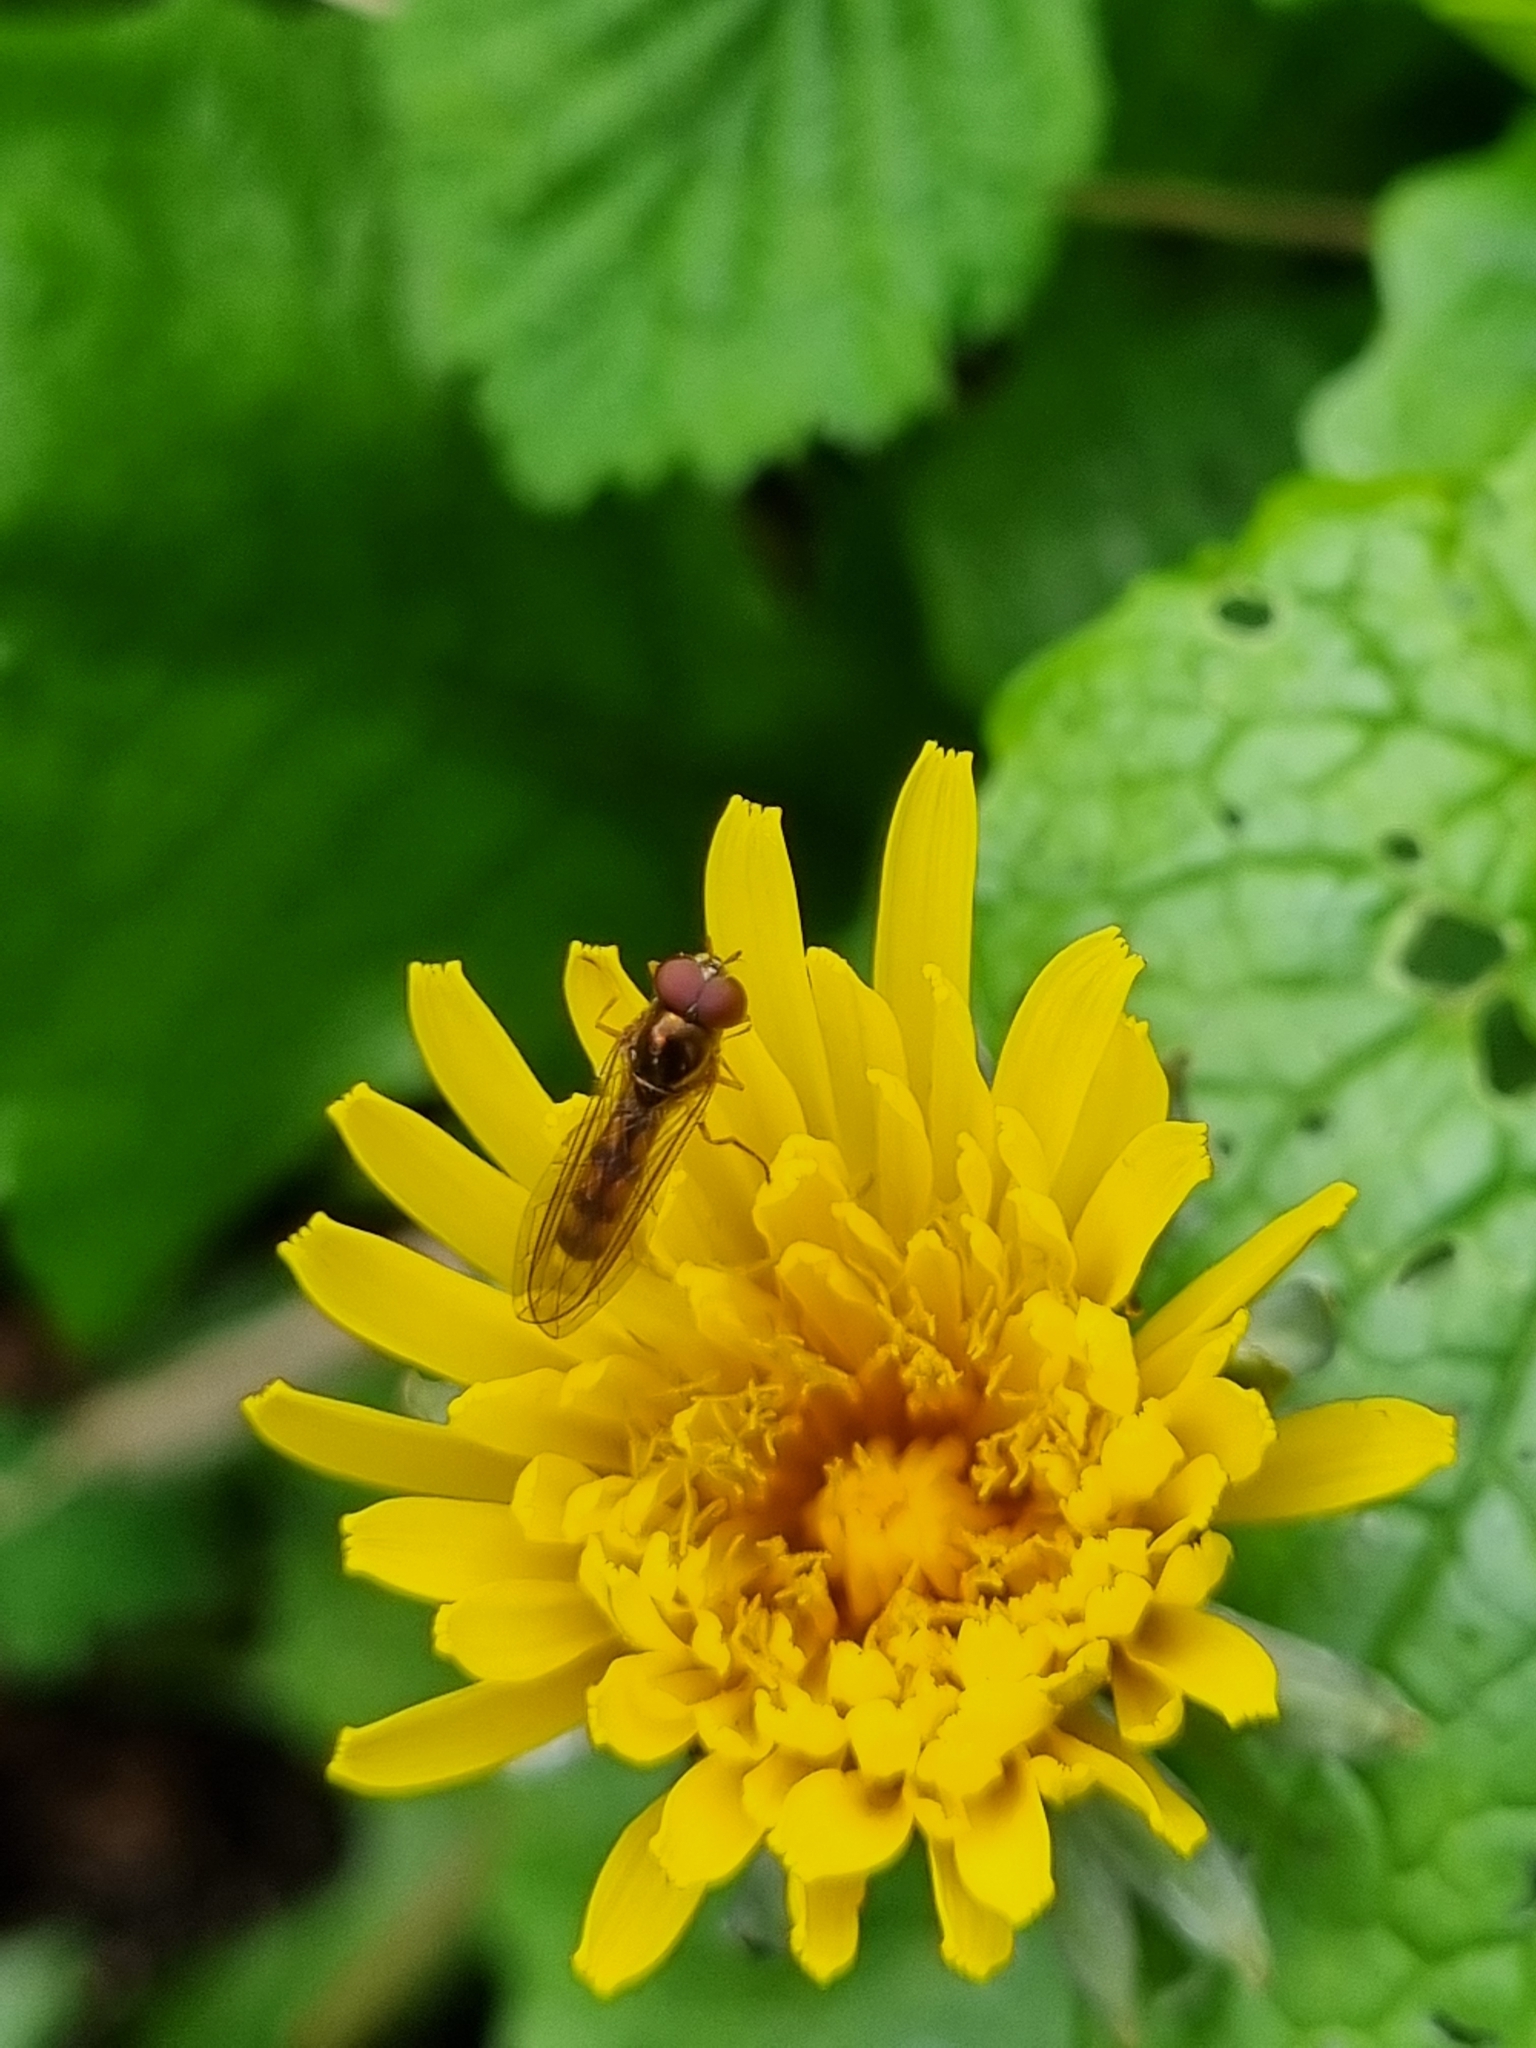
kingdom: Animalia
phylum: Arthropoda
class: Insecta
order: Diptera
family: Syrphidae
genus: Melanostoma
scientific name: Melanostoma scalare
